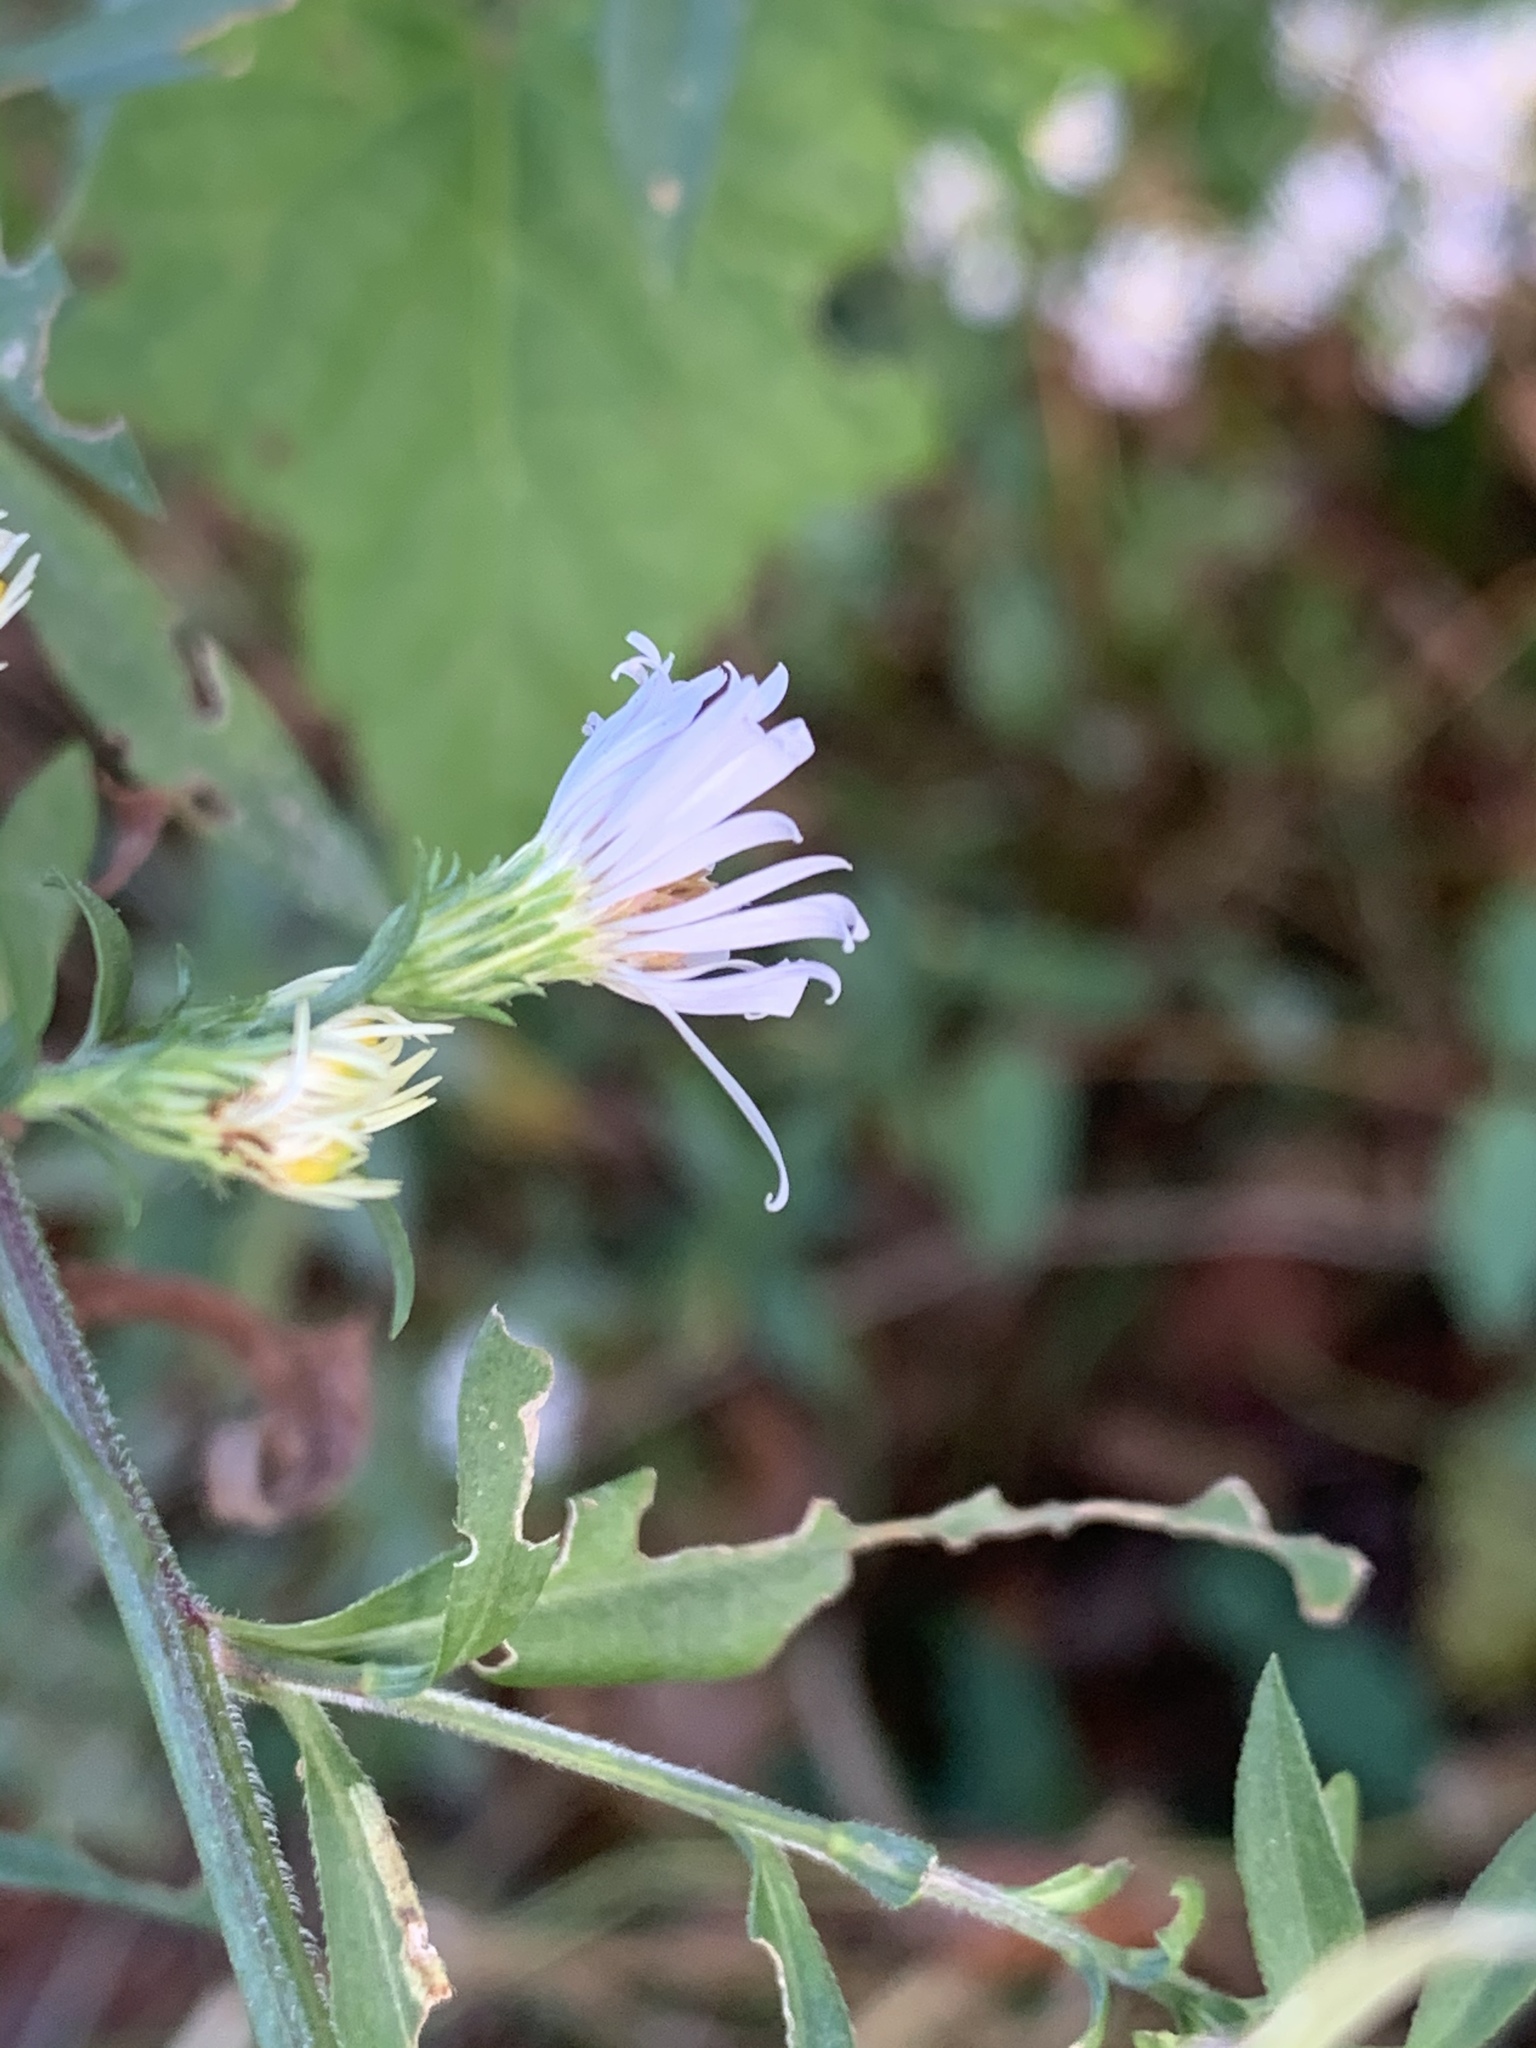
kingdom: Plantae
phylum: Tracheophyta
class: Magnoliopsida
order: Asterales
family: Asteraceae
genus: Symphyotrichum
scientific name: Symphyotrichum pilosum
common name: Awl aster
